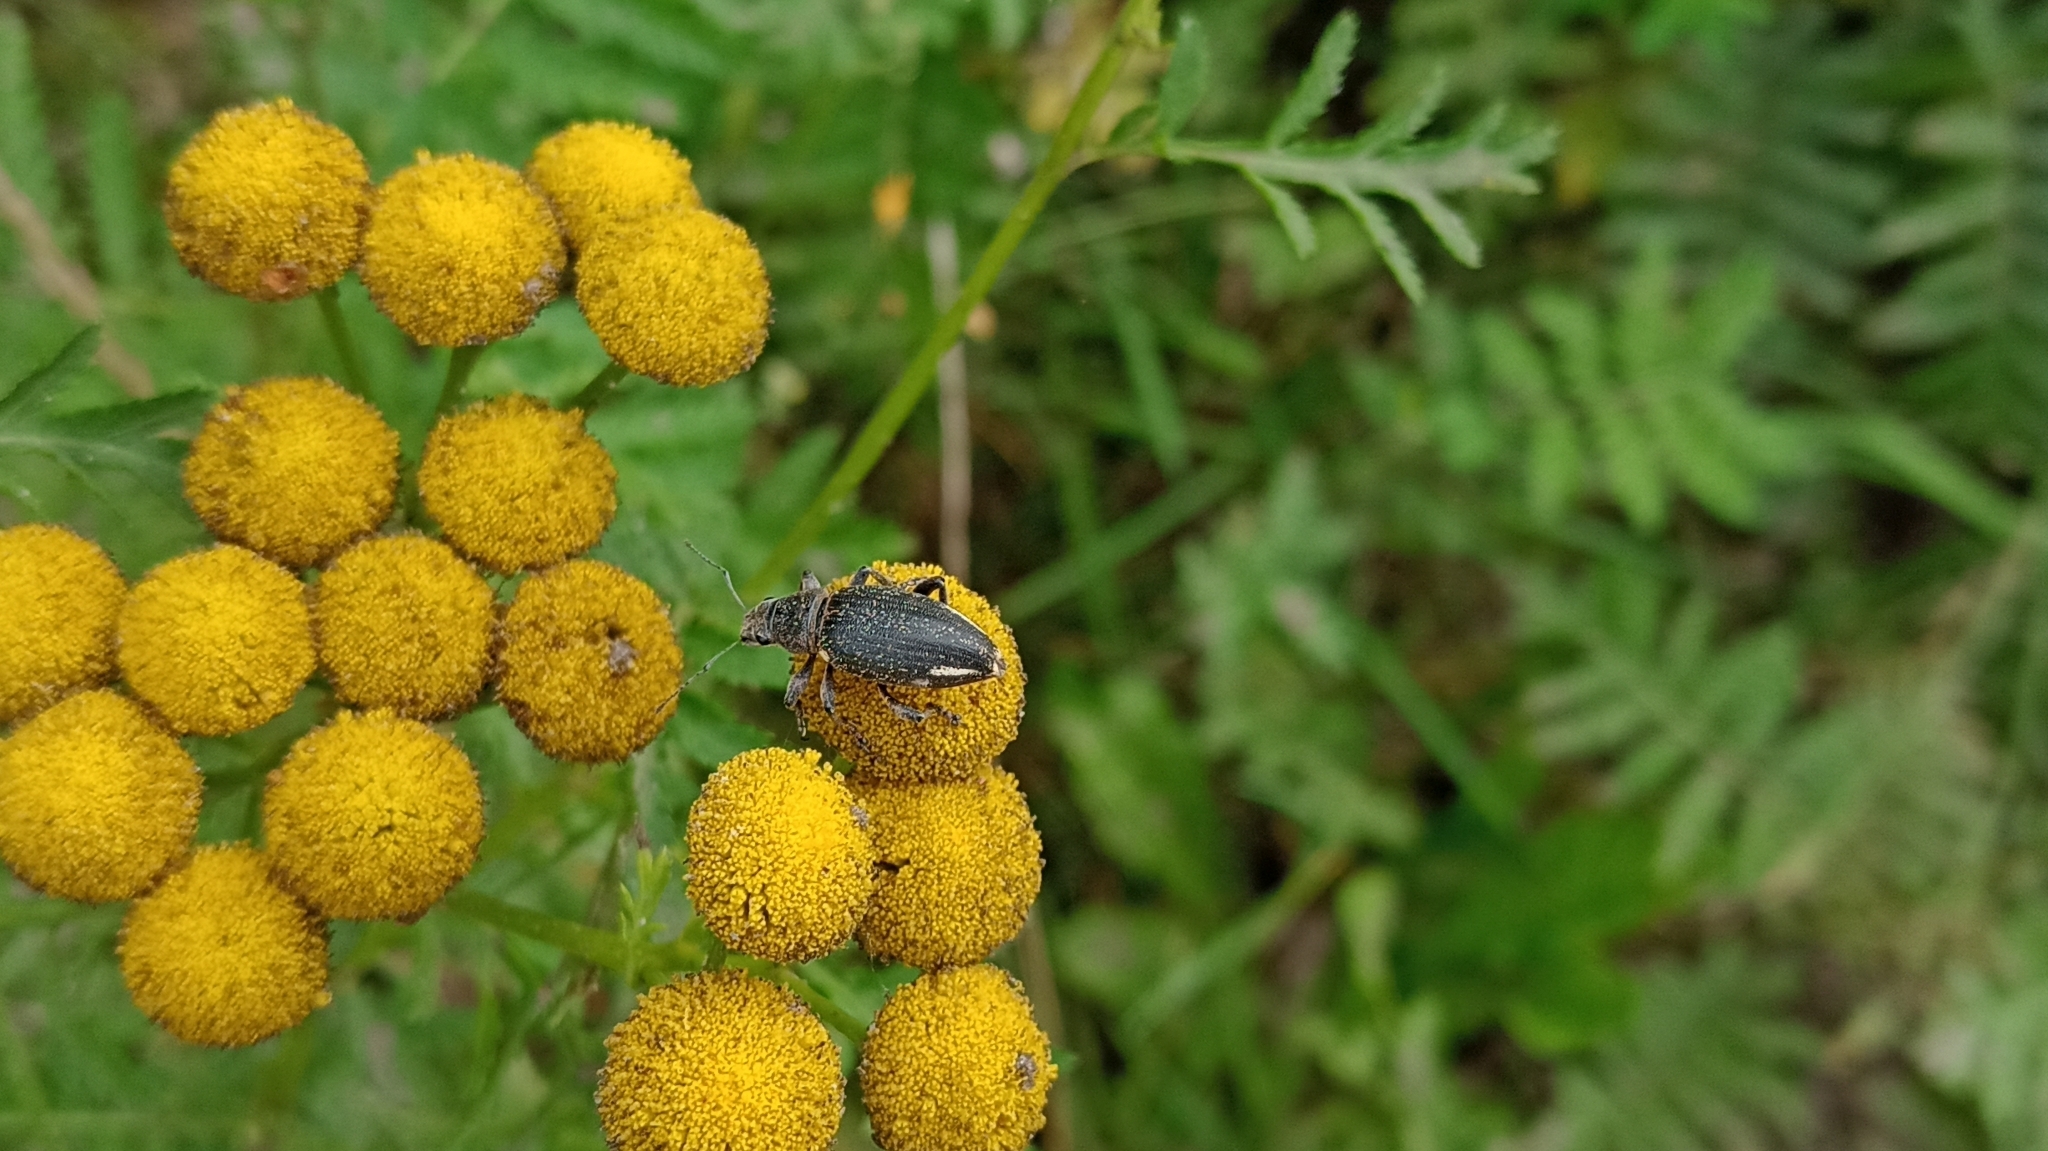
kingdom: Animalia
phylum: Arthropoda
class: Insecta
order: Coleoptera
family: Curculionidae
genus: Brachyderes
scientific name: Brachyderes lusitanicus
